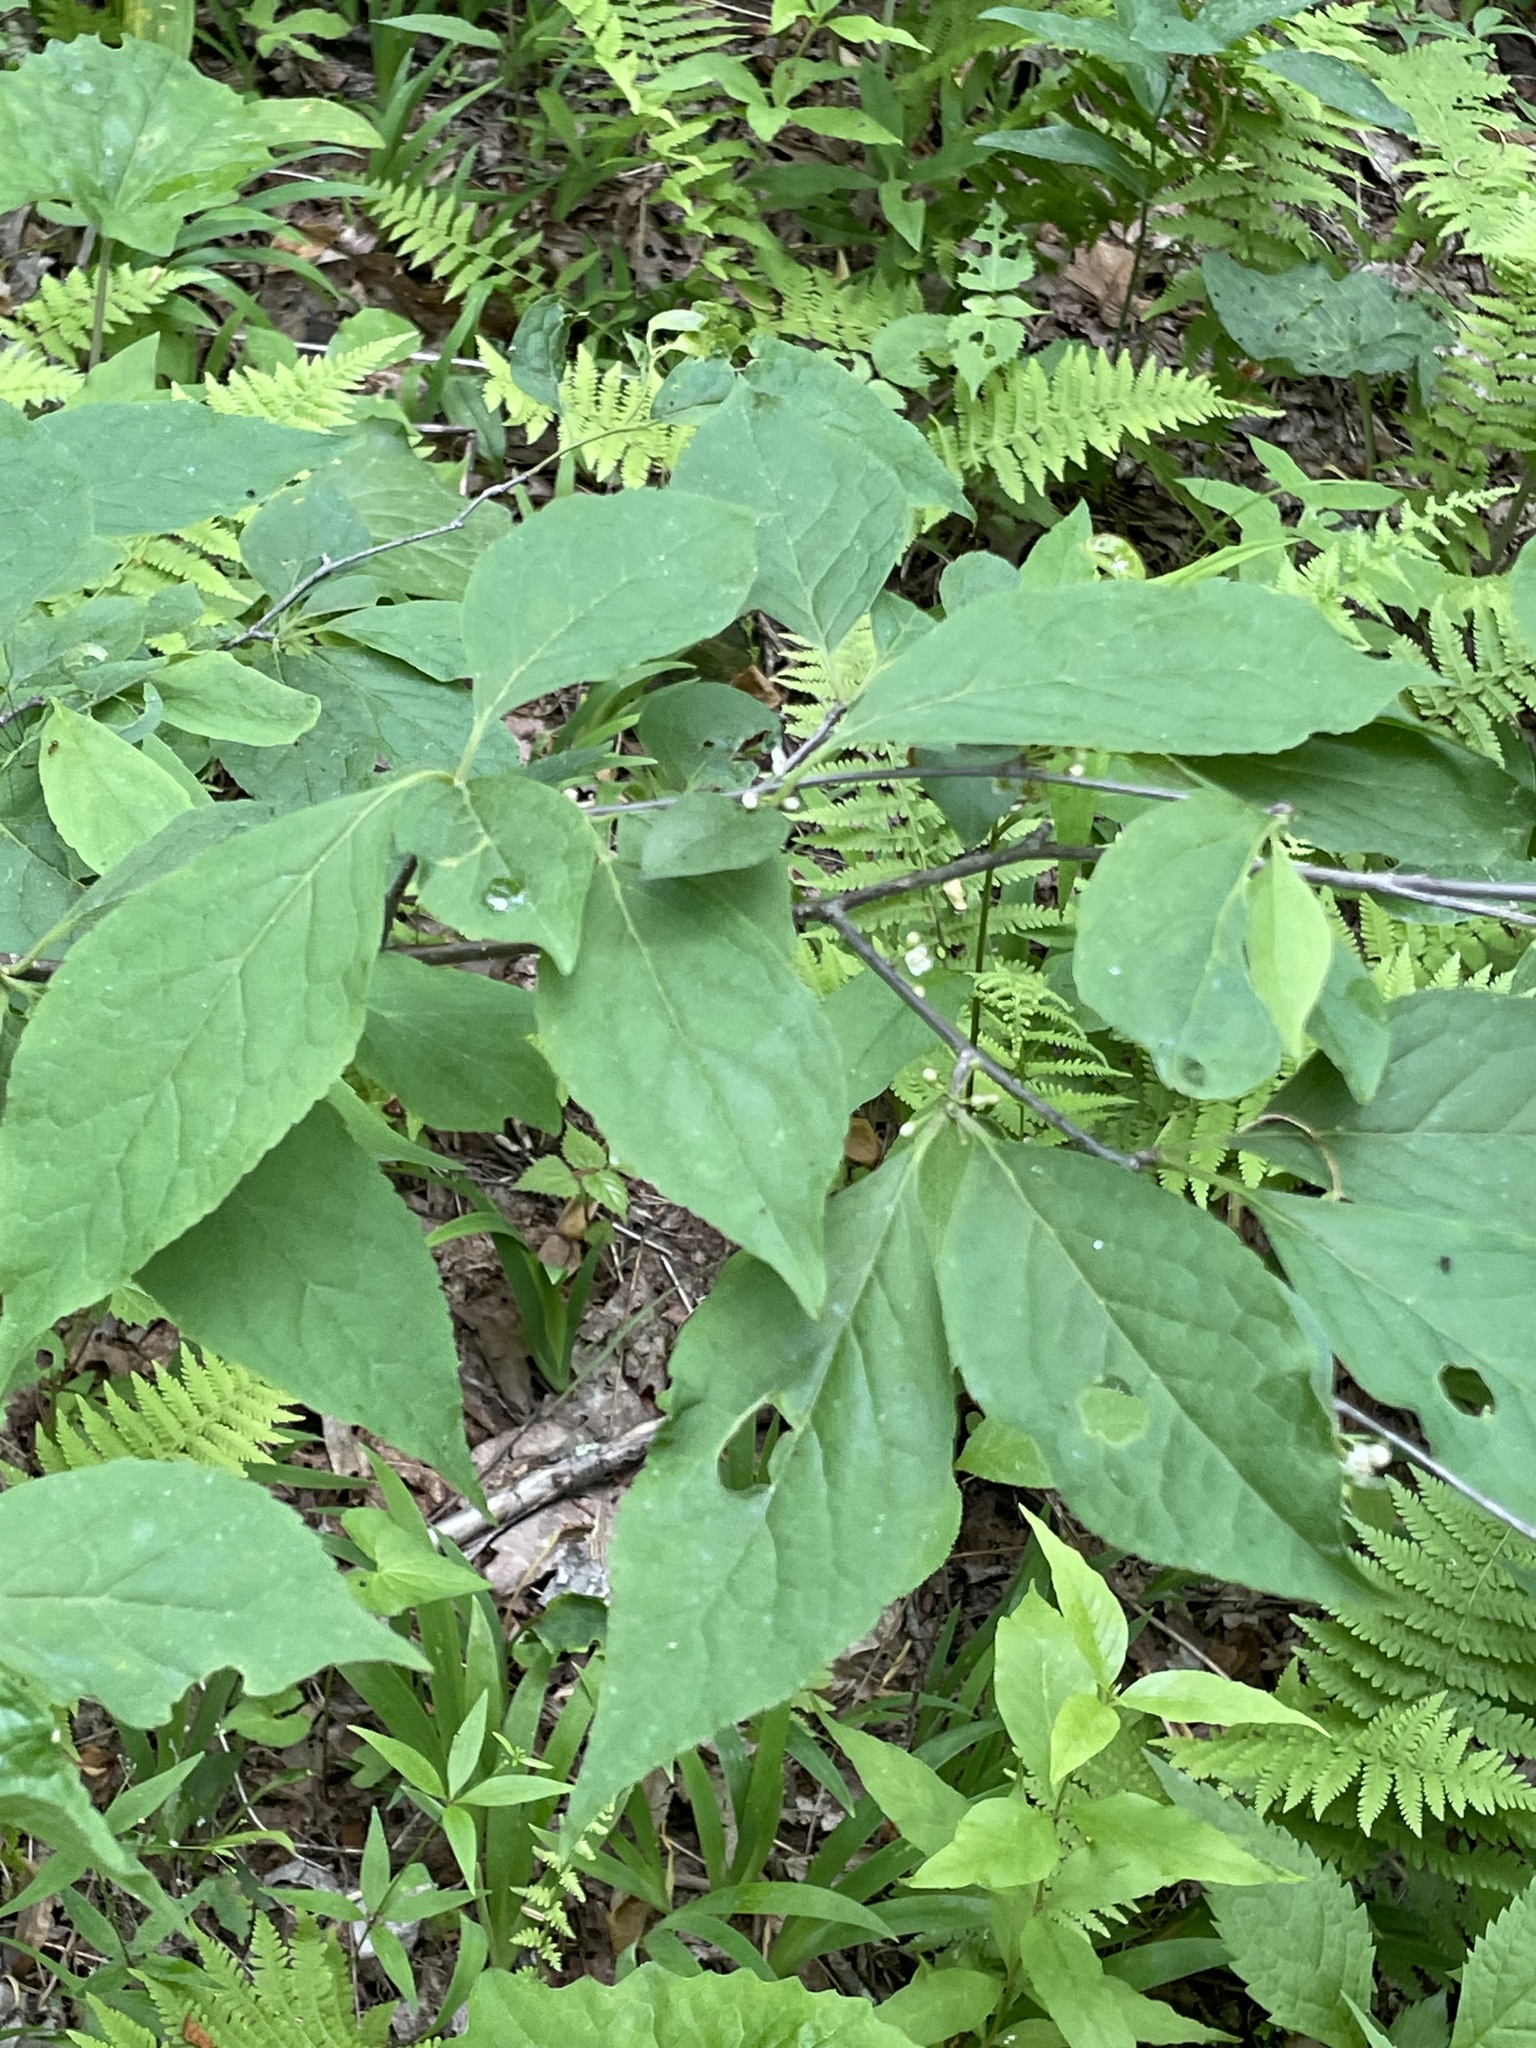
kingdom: Plantae
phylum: Tracheophyta
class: Magnoliopsida
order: Aquifoliales
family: Aquifoliaceae
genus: Ilex
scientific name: Ilex montana
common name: Mountain winterberry
